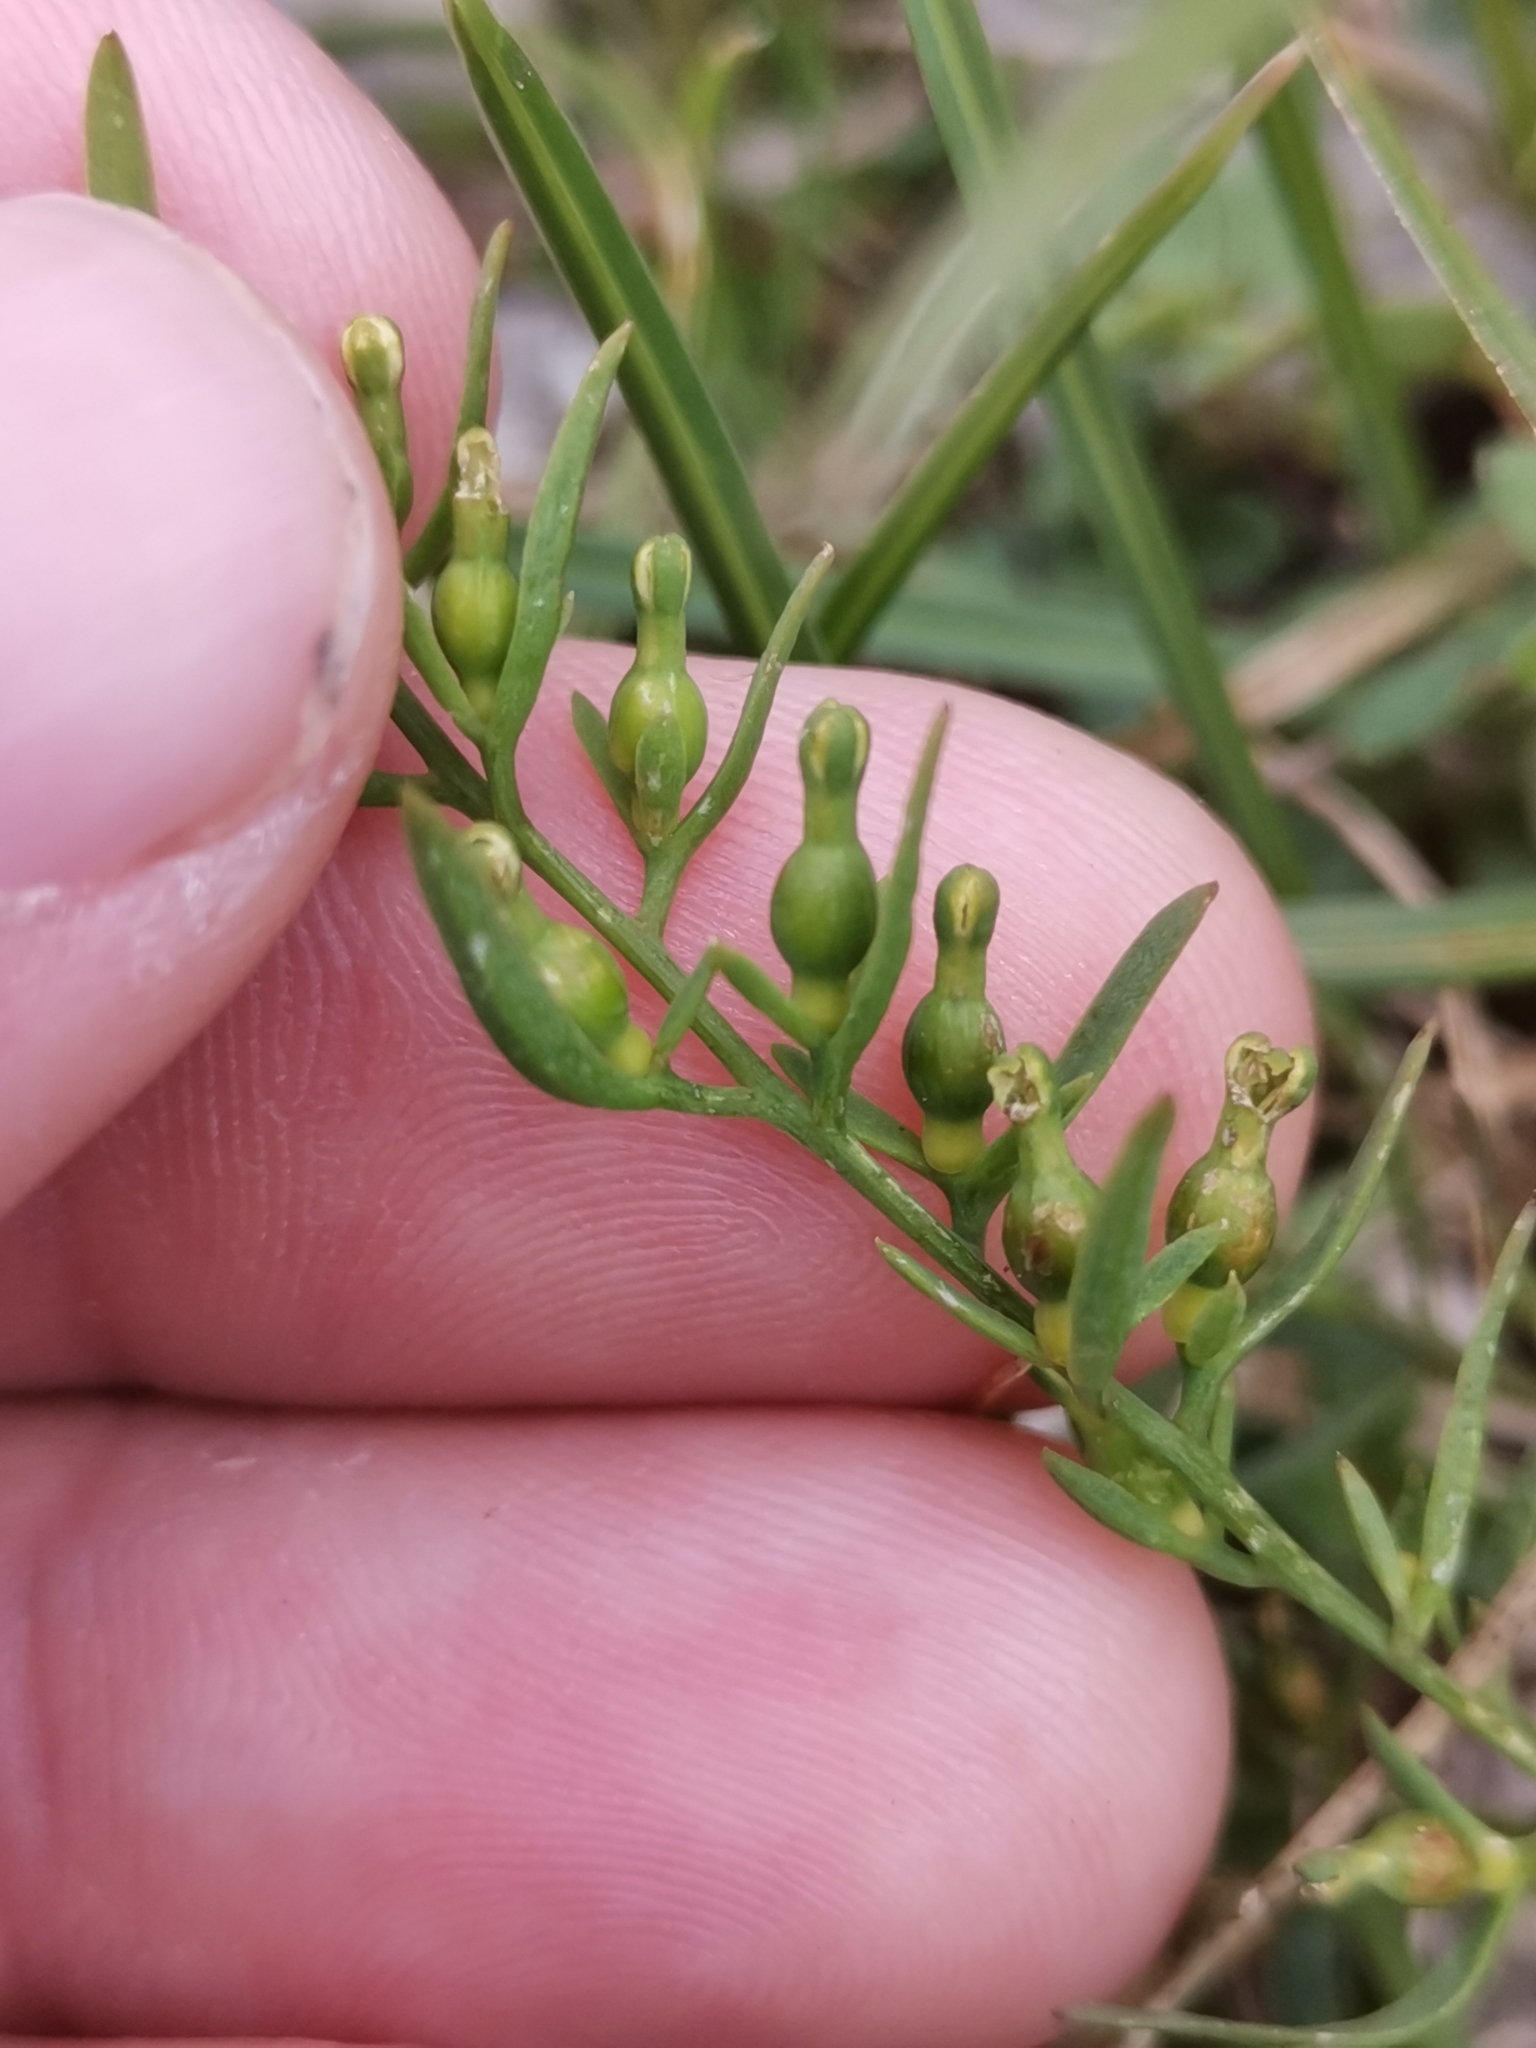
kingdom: Plantae
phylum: Tracheophyta
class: Magnoliopsida
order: Santalales
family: Thesiaceae
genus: Thesium
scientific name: Thesium alpinum
